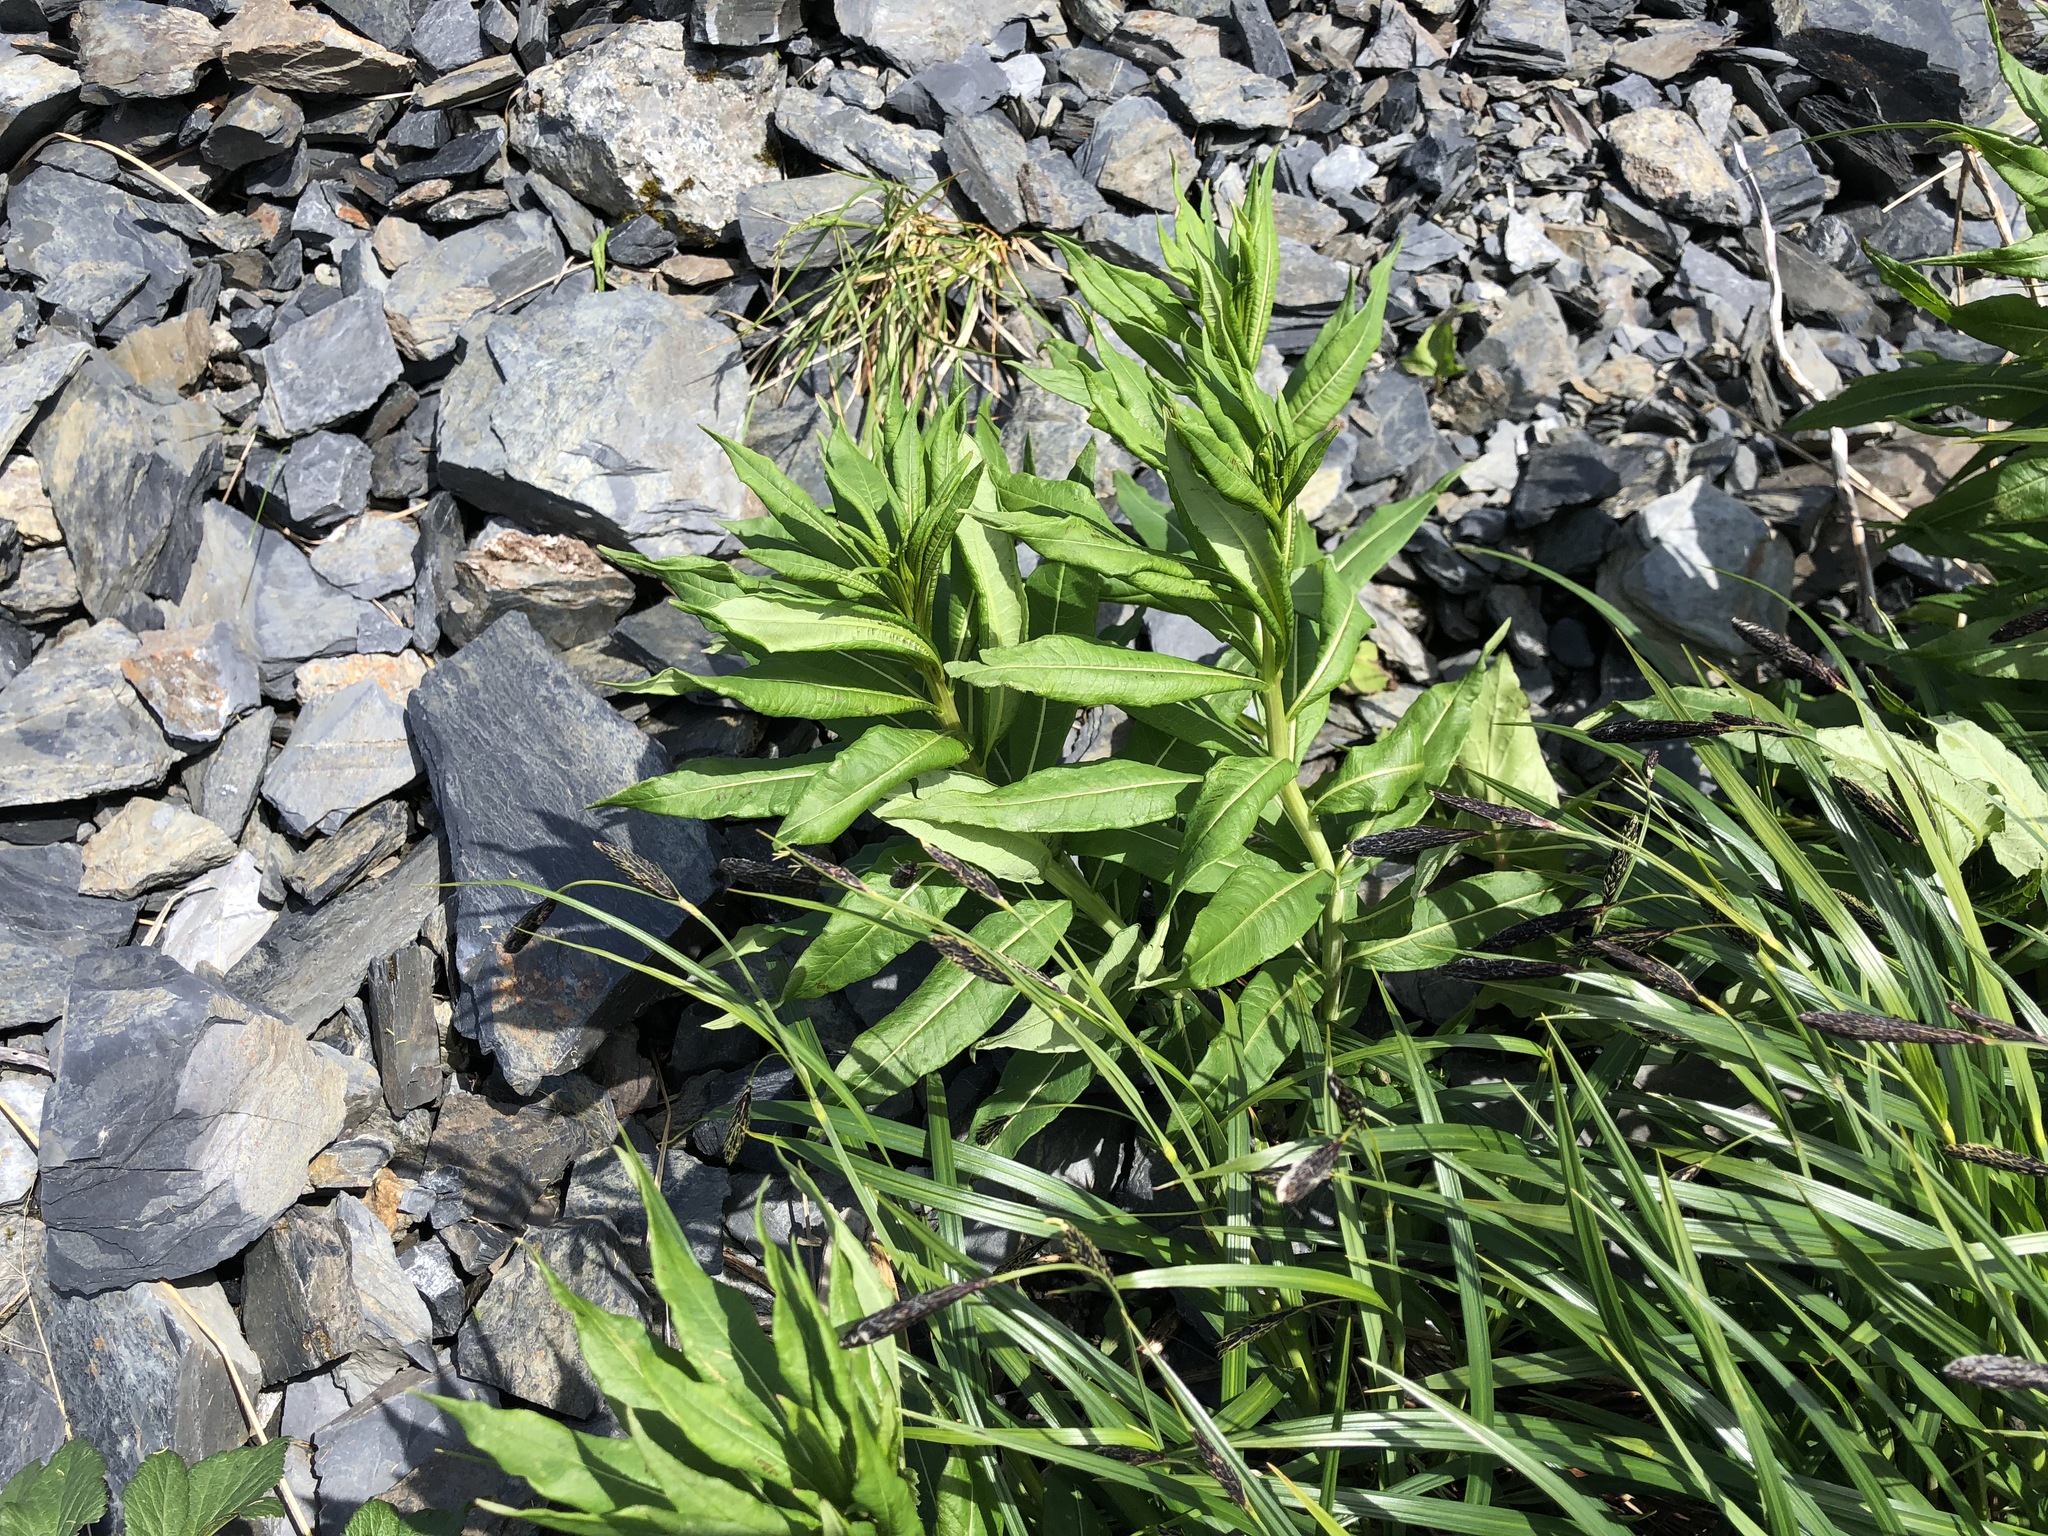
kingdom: Plantae
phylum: Tracheophyta
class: Magnoliopsida
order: Myrtales
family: Onagraceae
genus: Chamaenerion
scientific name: Chamaenerion angustifolium
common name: Fireweed
